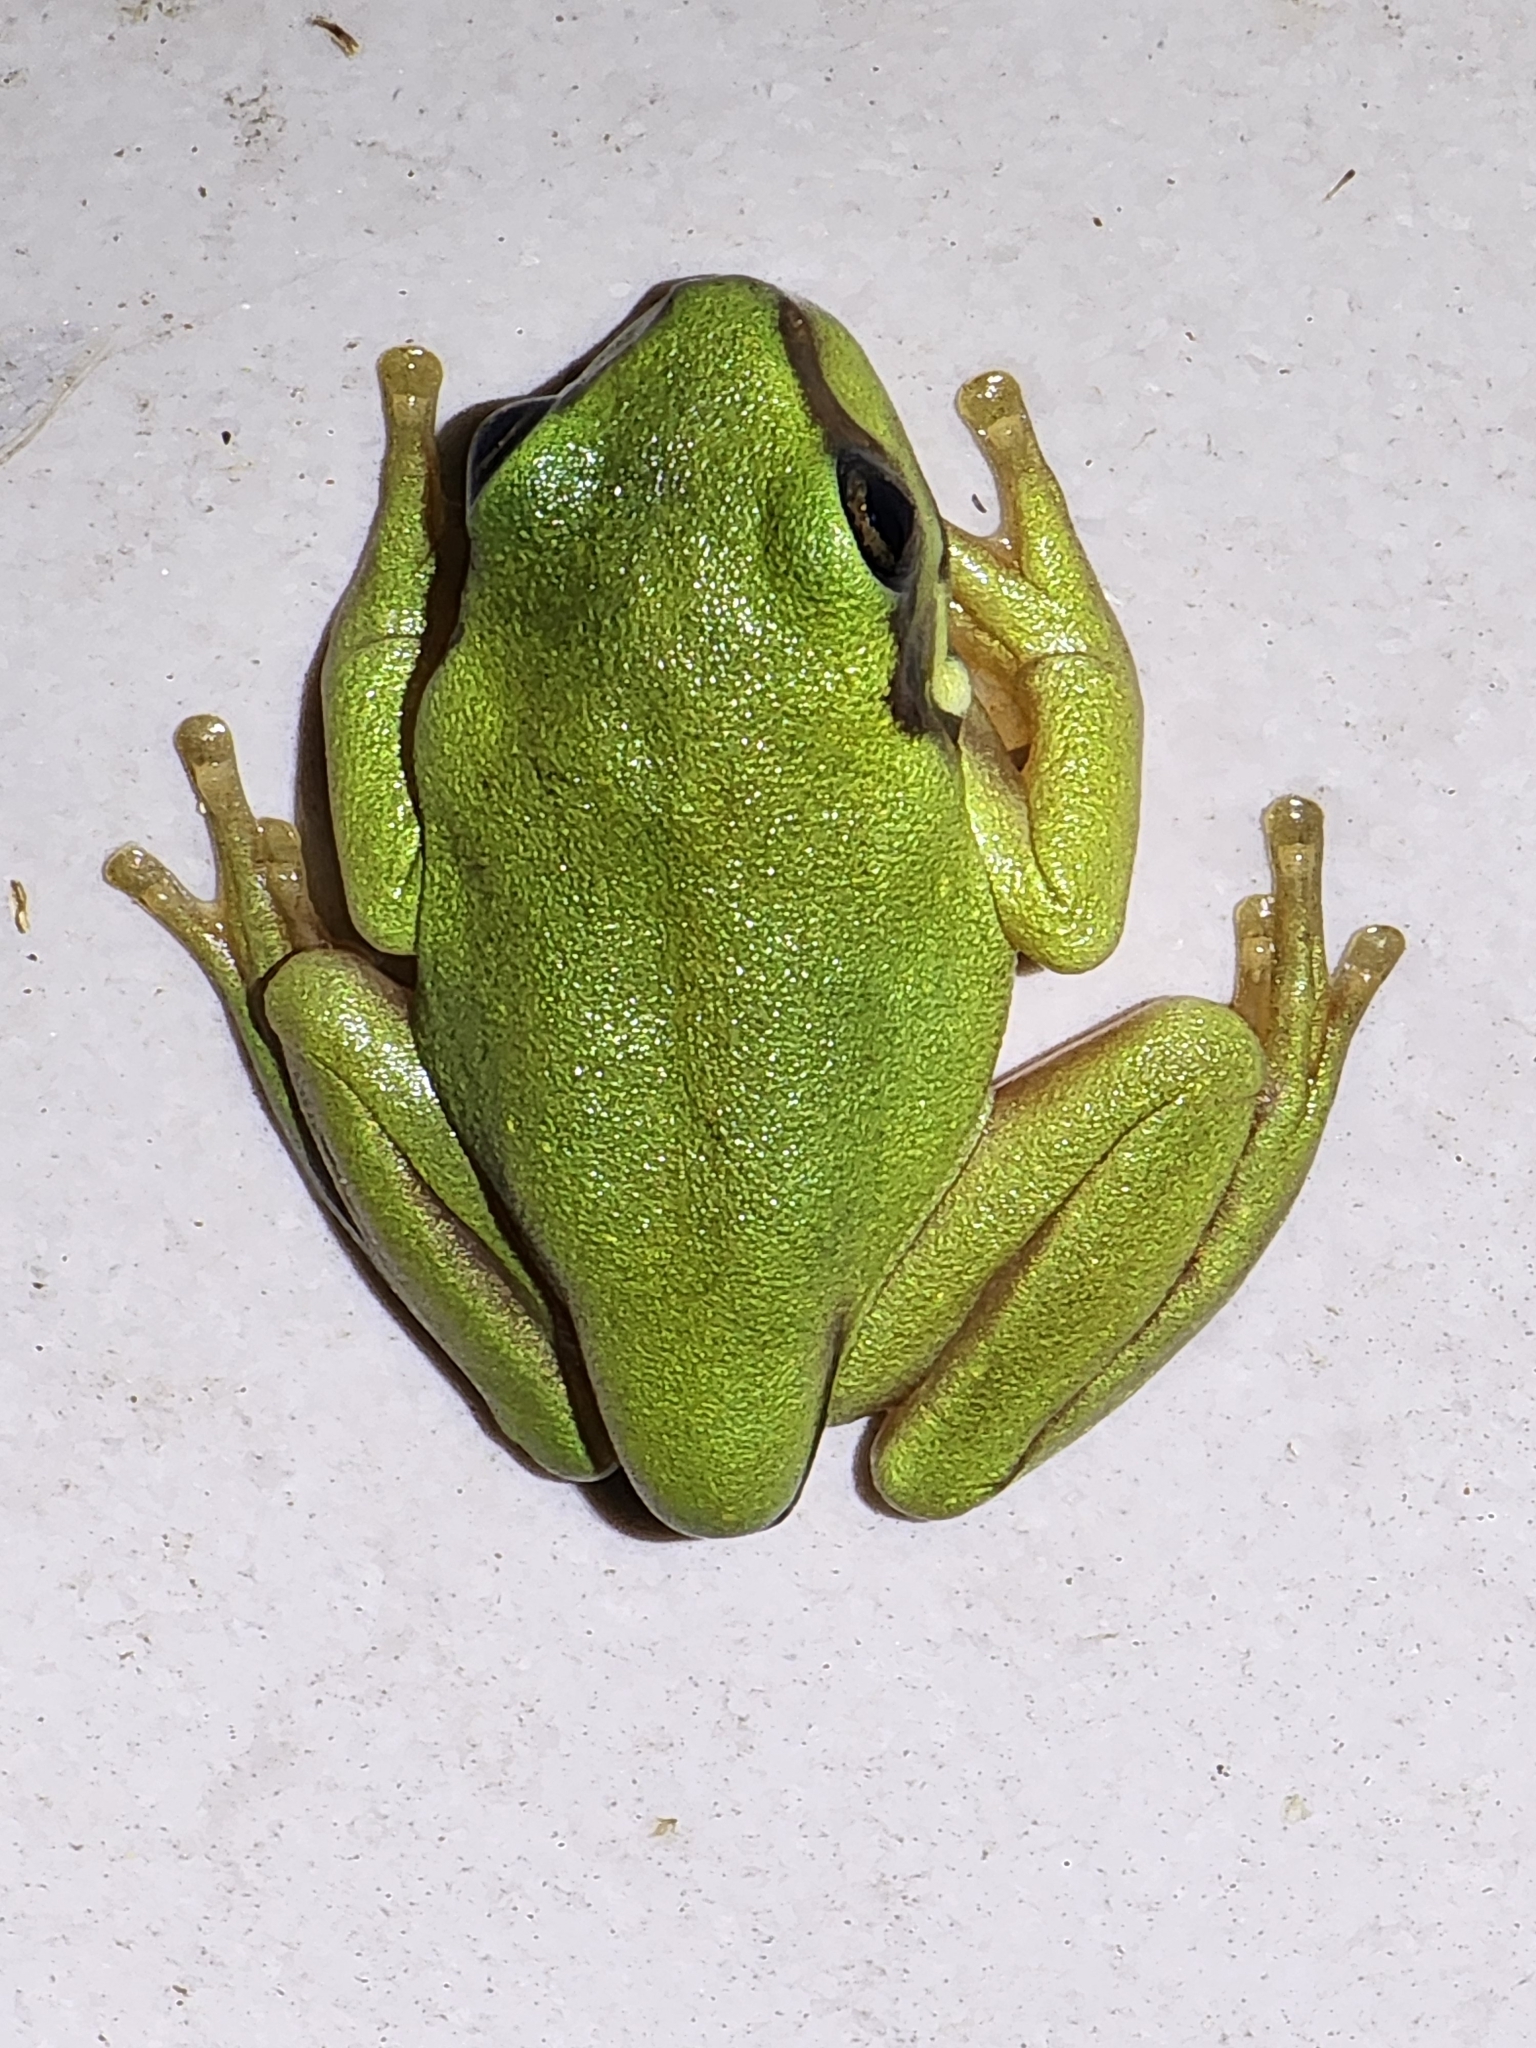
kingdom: Animalia
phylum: Chordata
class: Amphibia
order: Anura
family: Pelodryadidae
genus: Ranoidea
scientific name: Ranoidea caerulea
